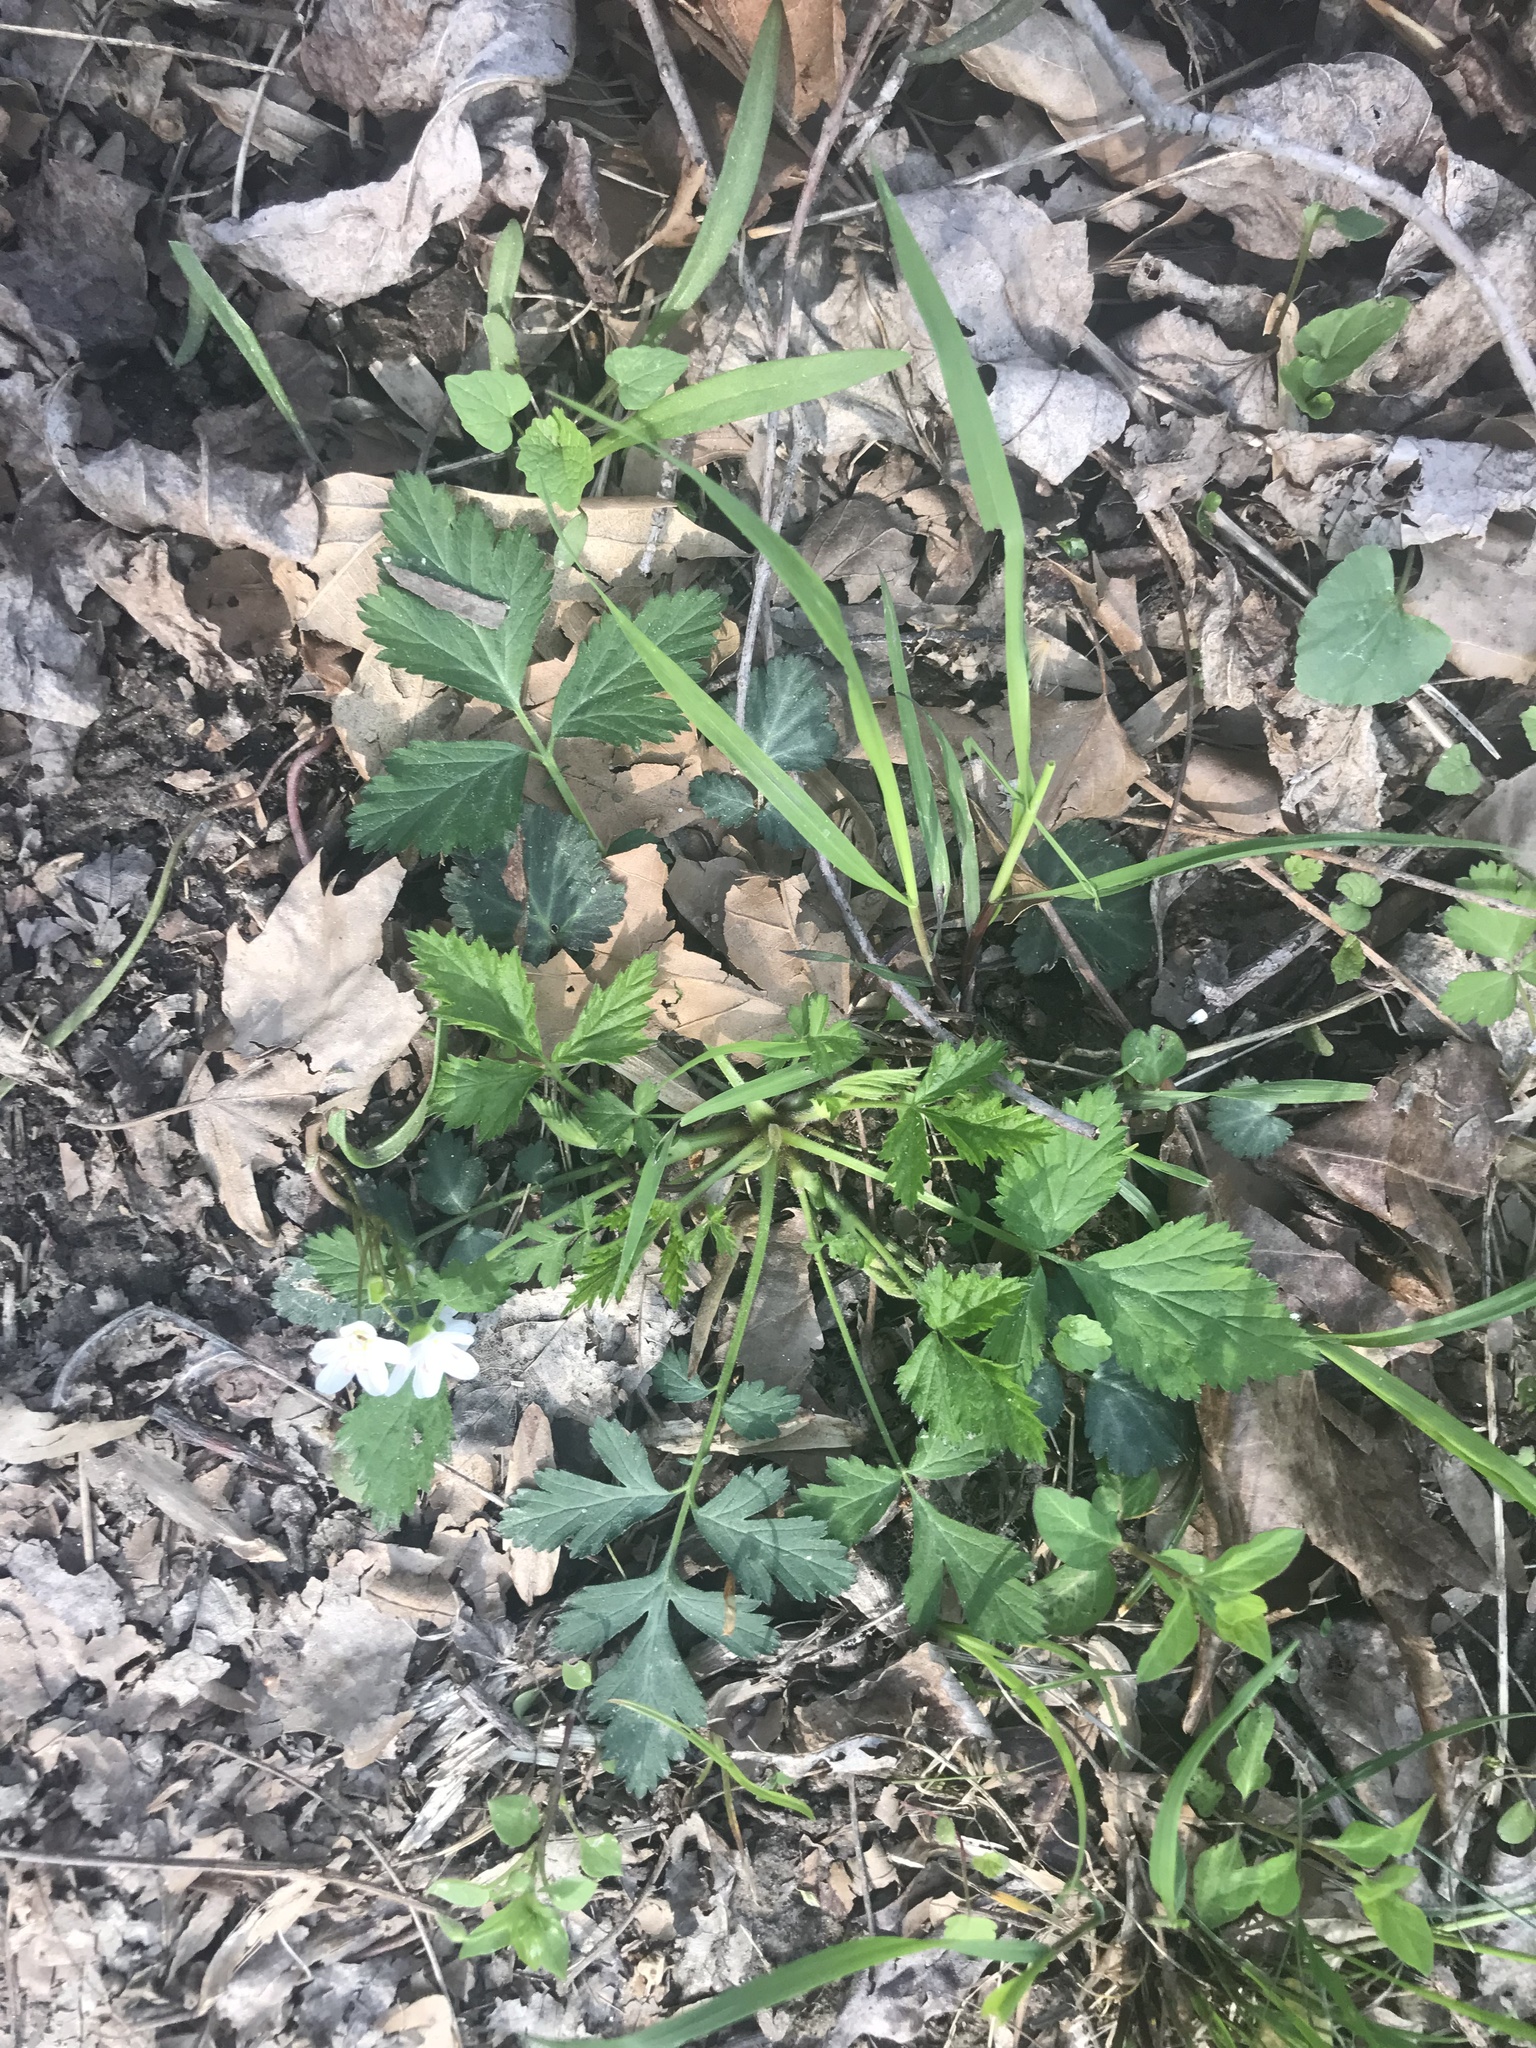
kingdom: Plantae
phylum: Tracheophyta
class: Magnoliopsida
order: Rosales
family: Rosaceae
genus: Geum
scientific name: Geum canadense
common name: White avens
